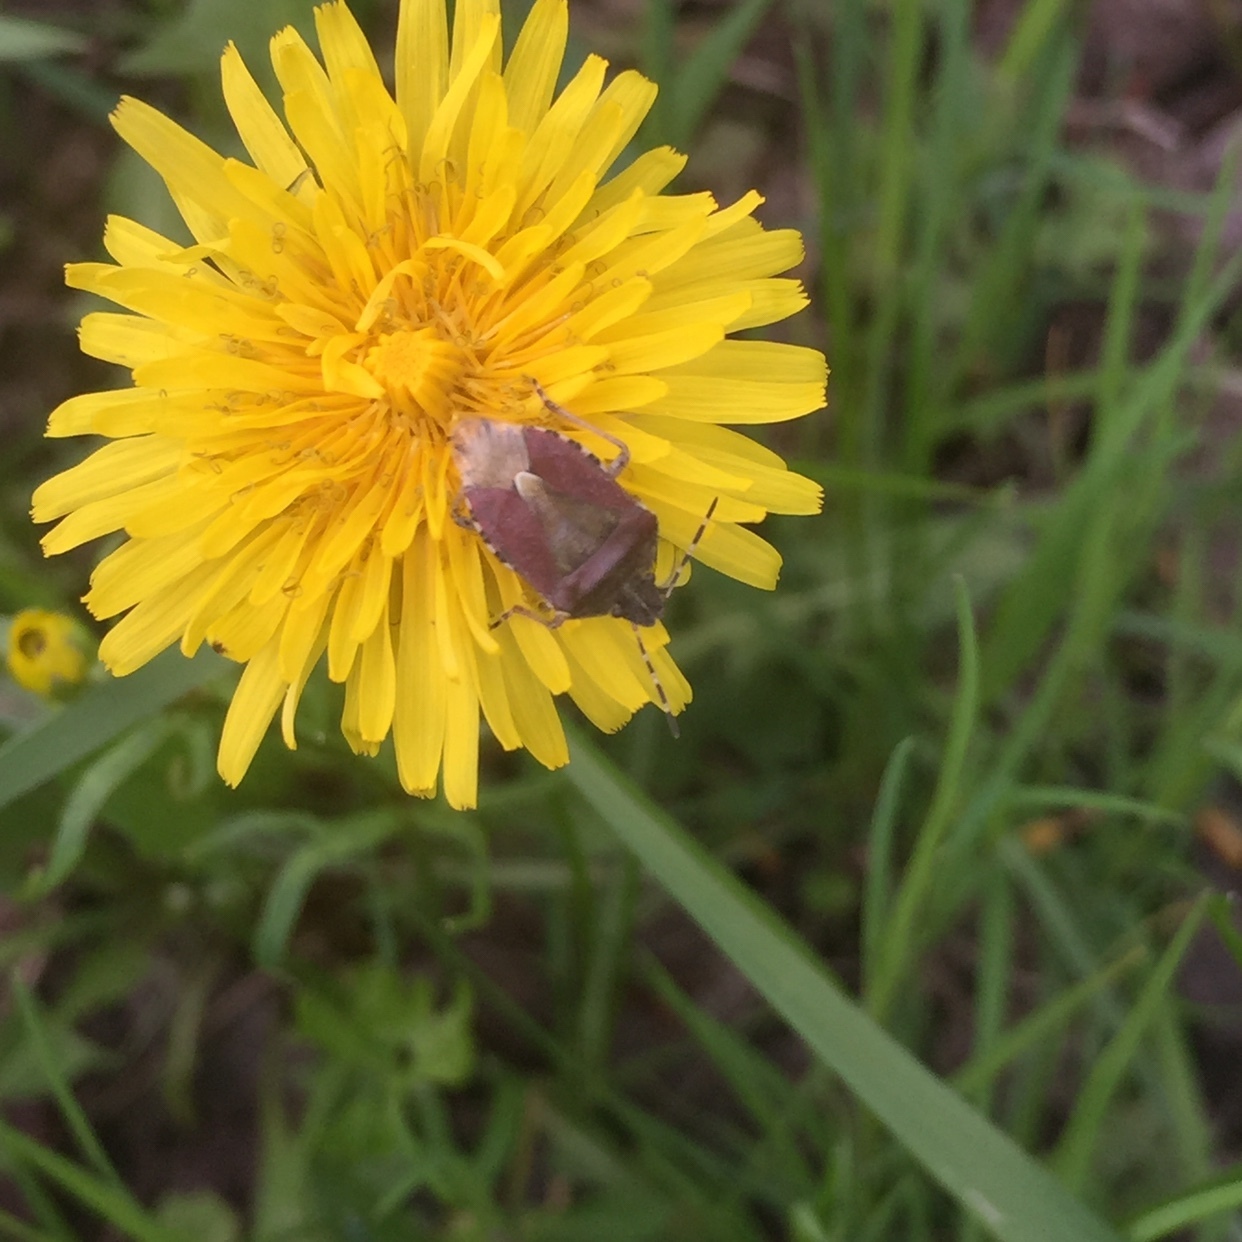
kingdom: Animalia
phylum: Arthropoda
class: Insecta
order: Hemiptera
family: Pentatomidae
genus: Dolycoris
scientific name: Dolycoris baccarum
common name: Sloe bug
